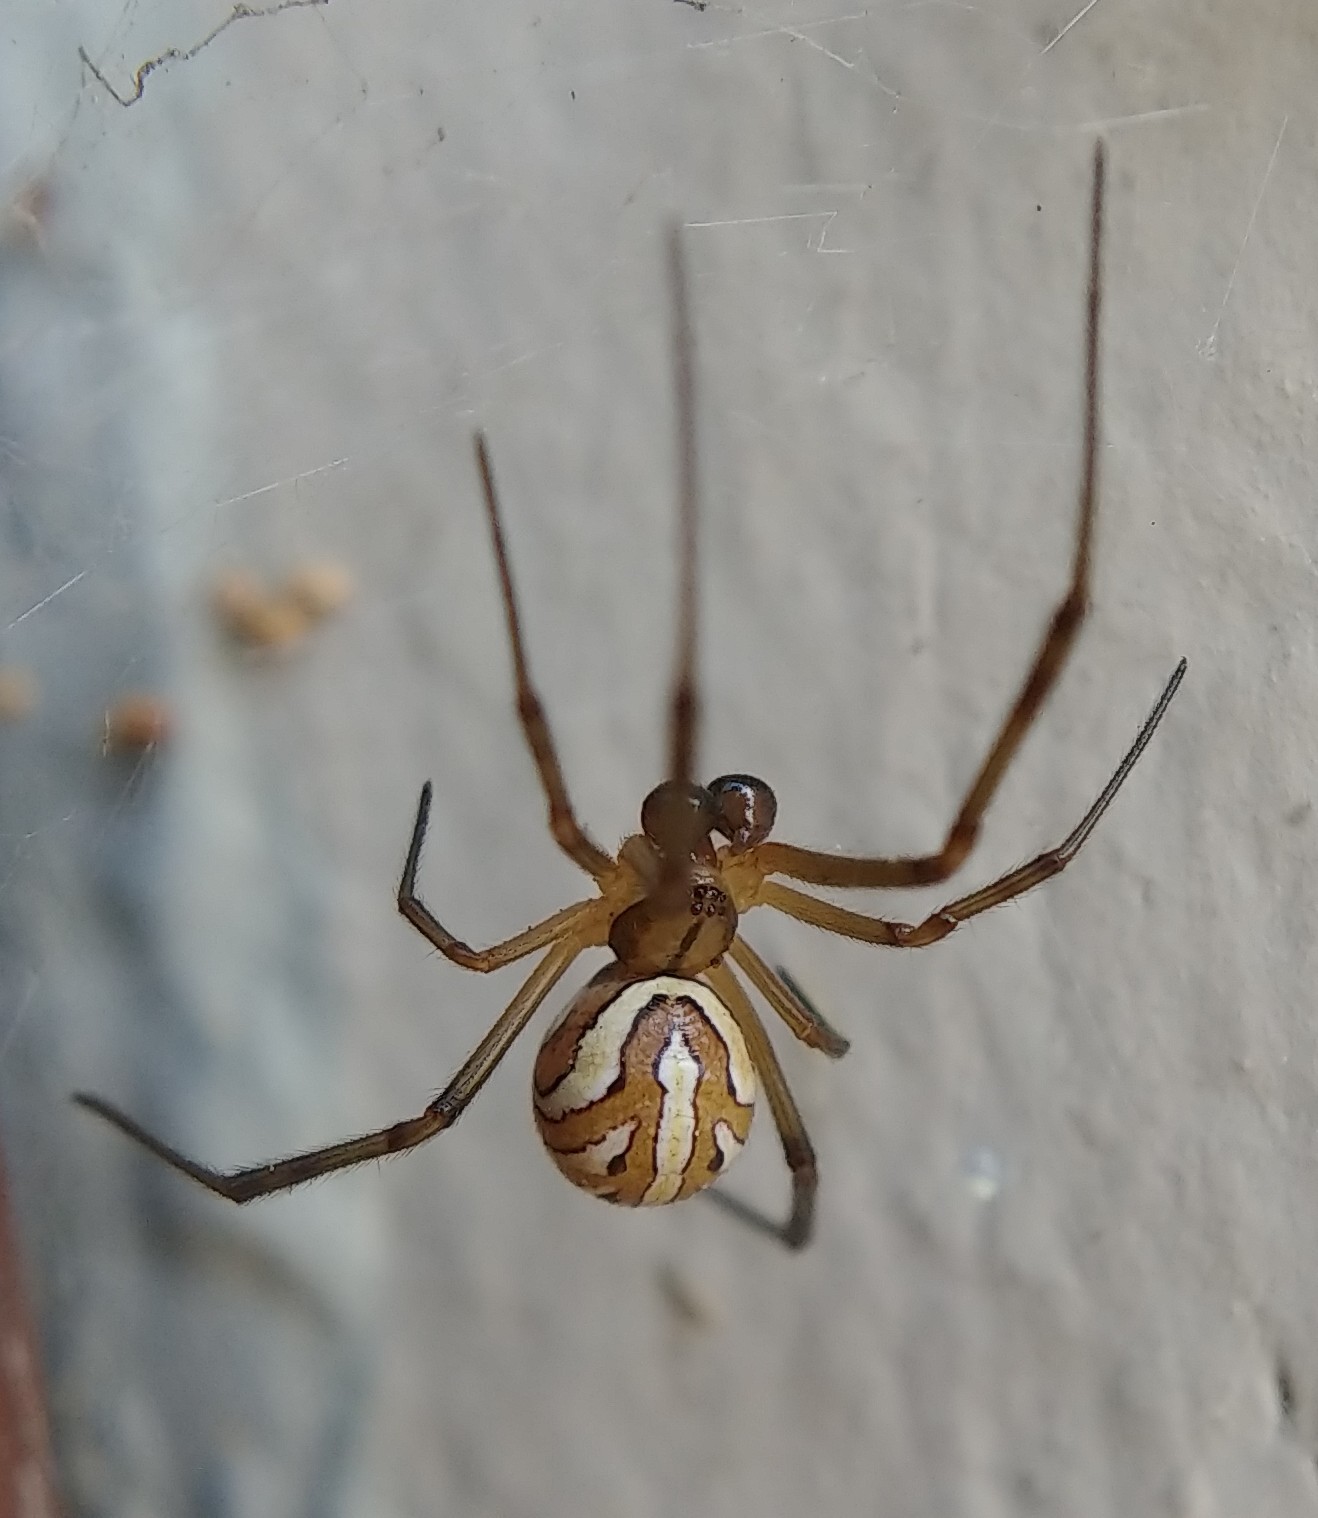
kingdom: Animalia
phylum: Arthropoda
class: Arachnida
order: Araneae
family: Theridiidae
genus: Latrodectus
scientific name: Latrodectus hesperus
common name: Western black widow
